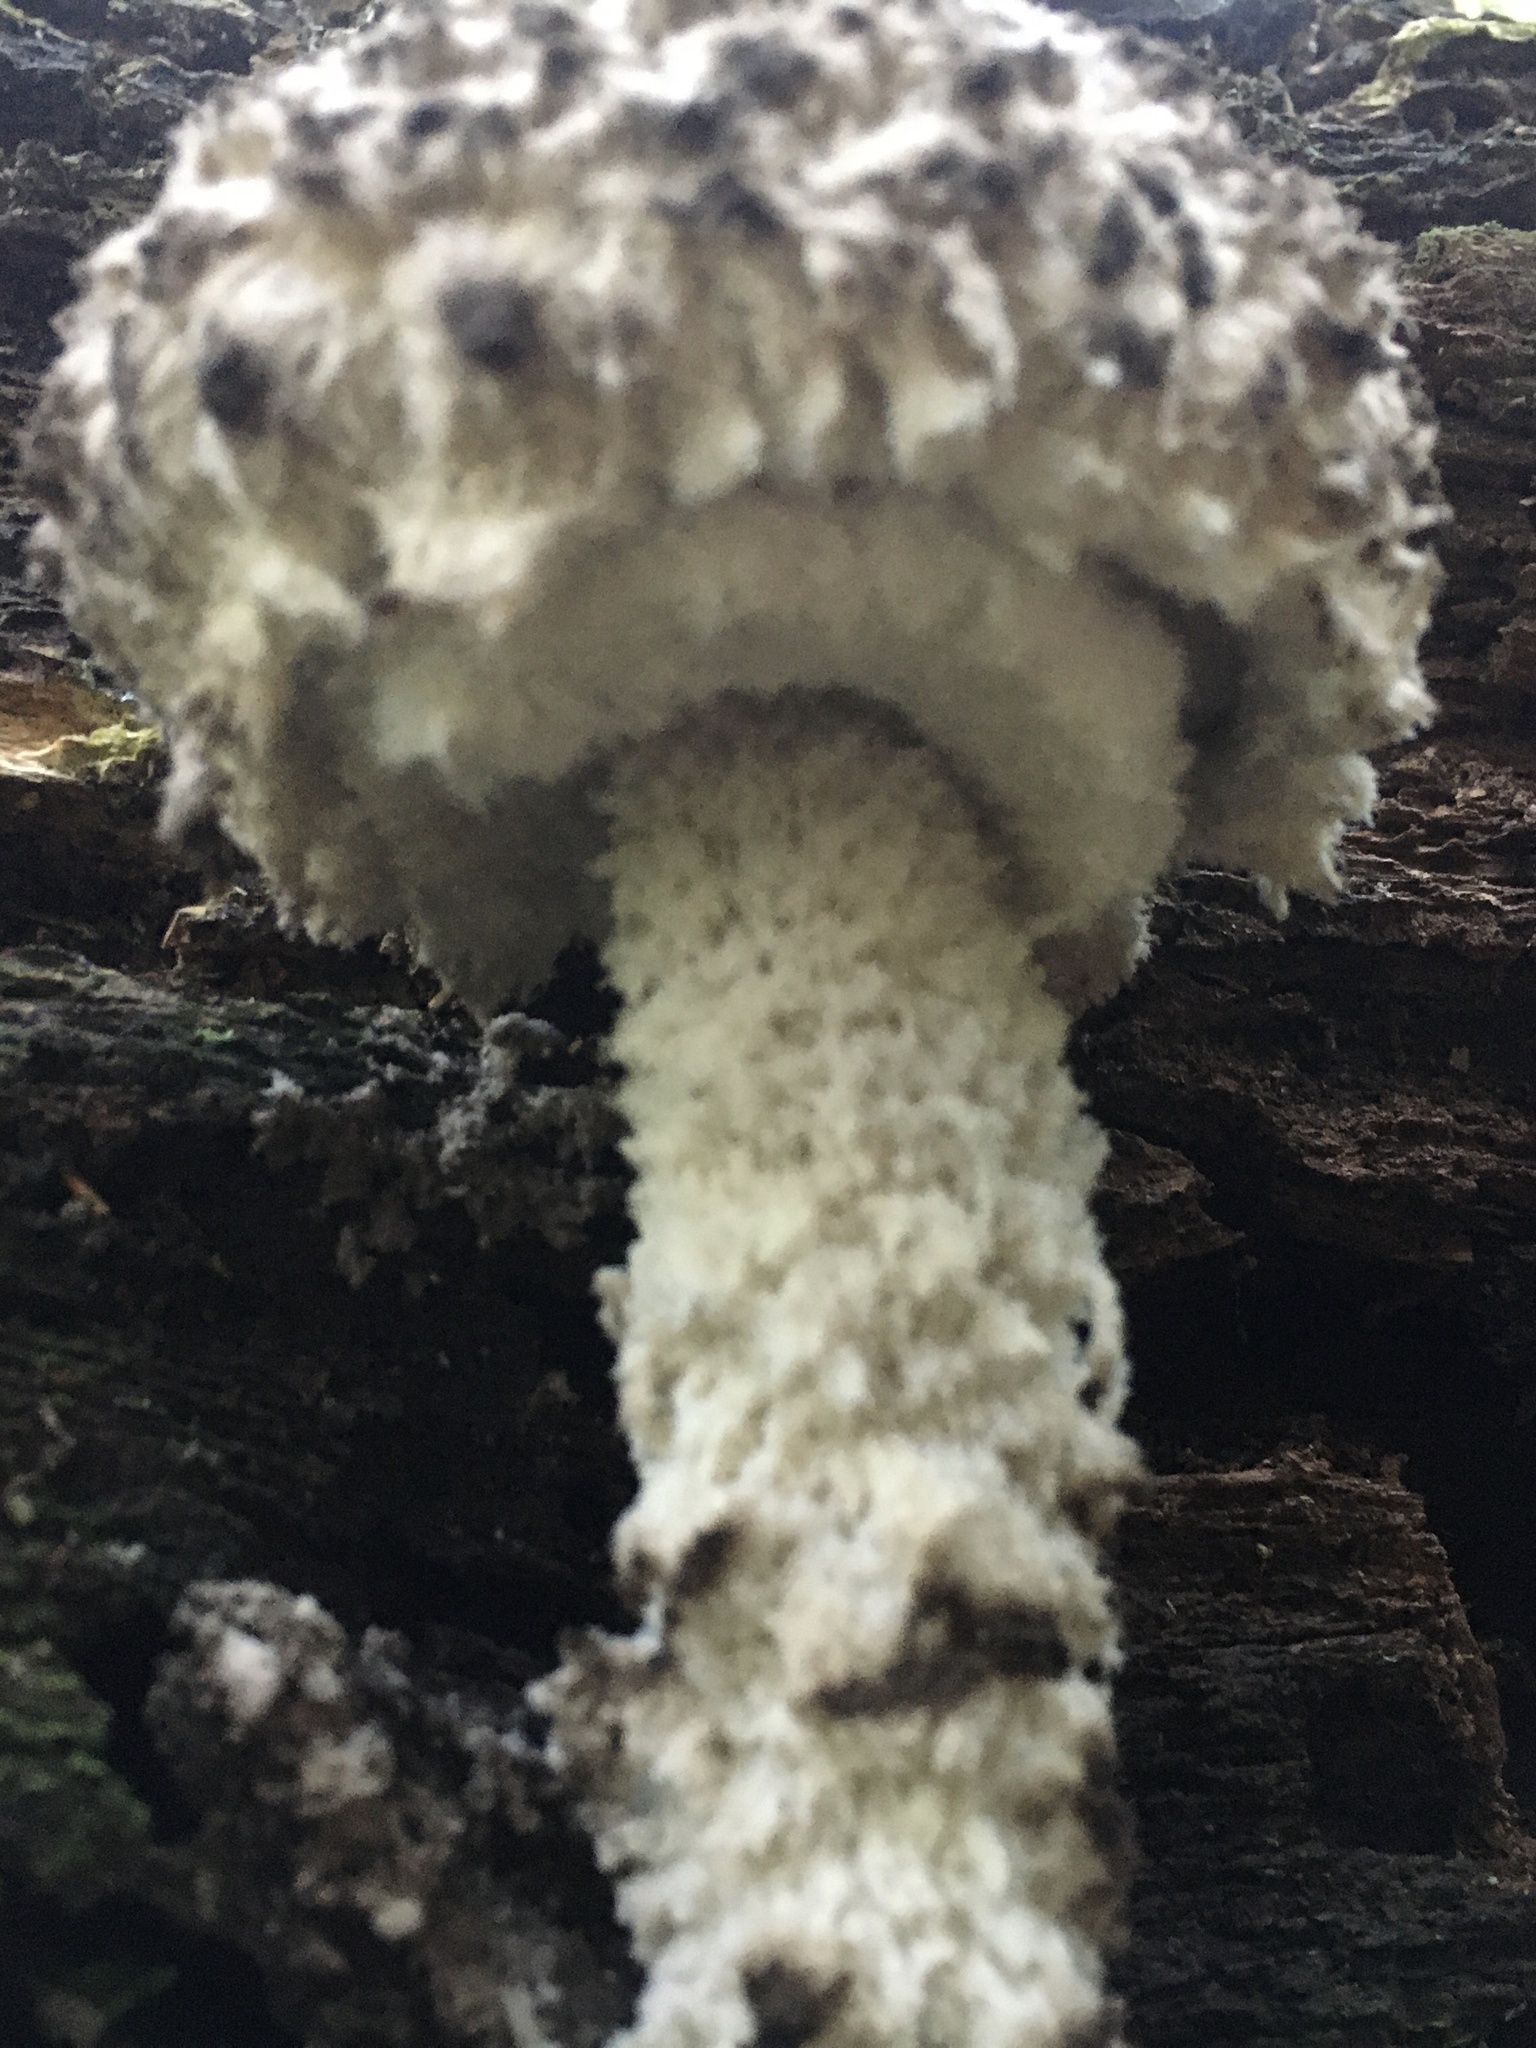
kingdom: Fungi
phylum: Basidiomycota
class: Agaricomycetes
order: Boletales
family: Boletaceae
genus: Strobilomyces
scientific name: Strobilomyces strobilaceus
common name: Old man of the woods
